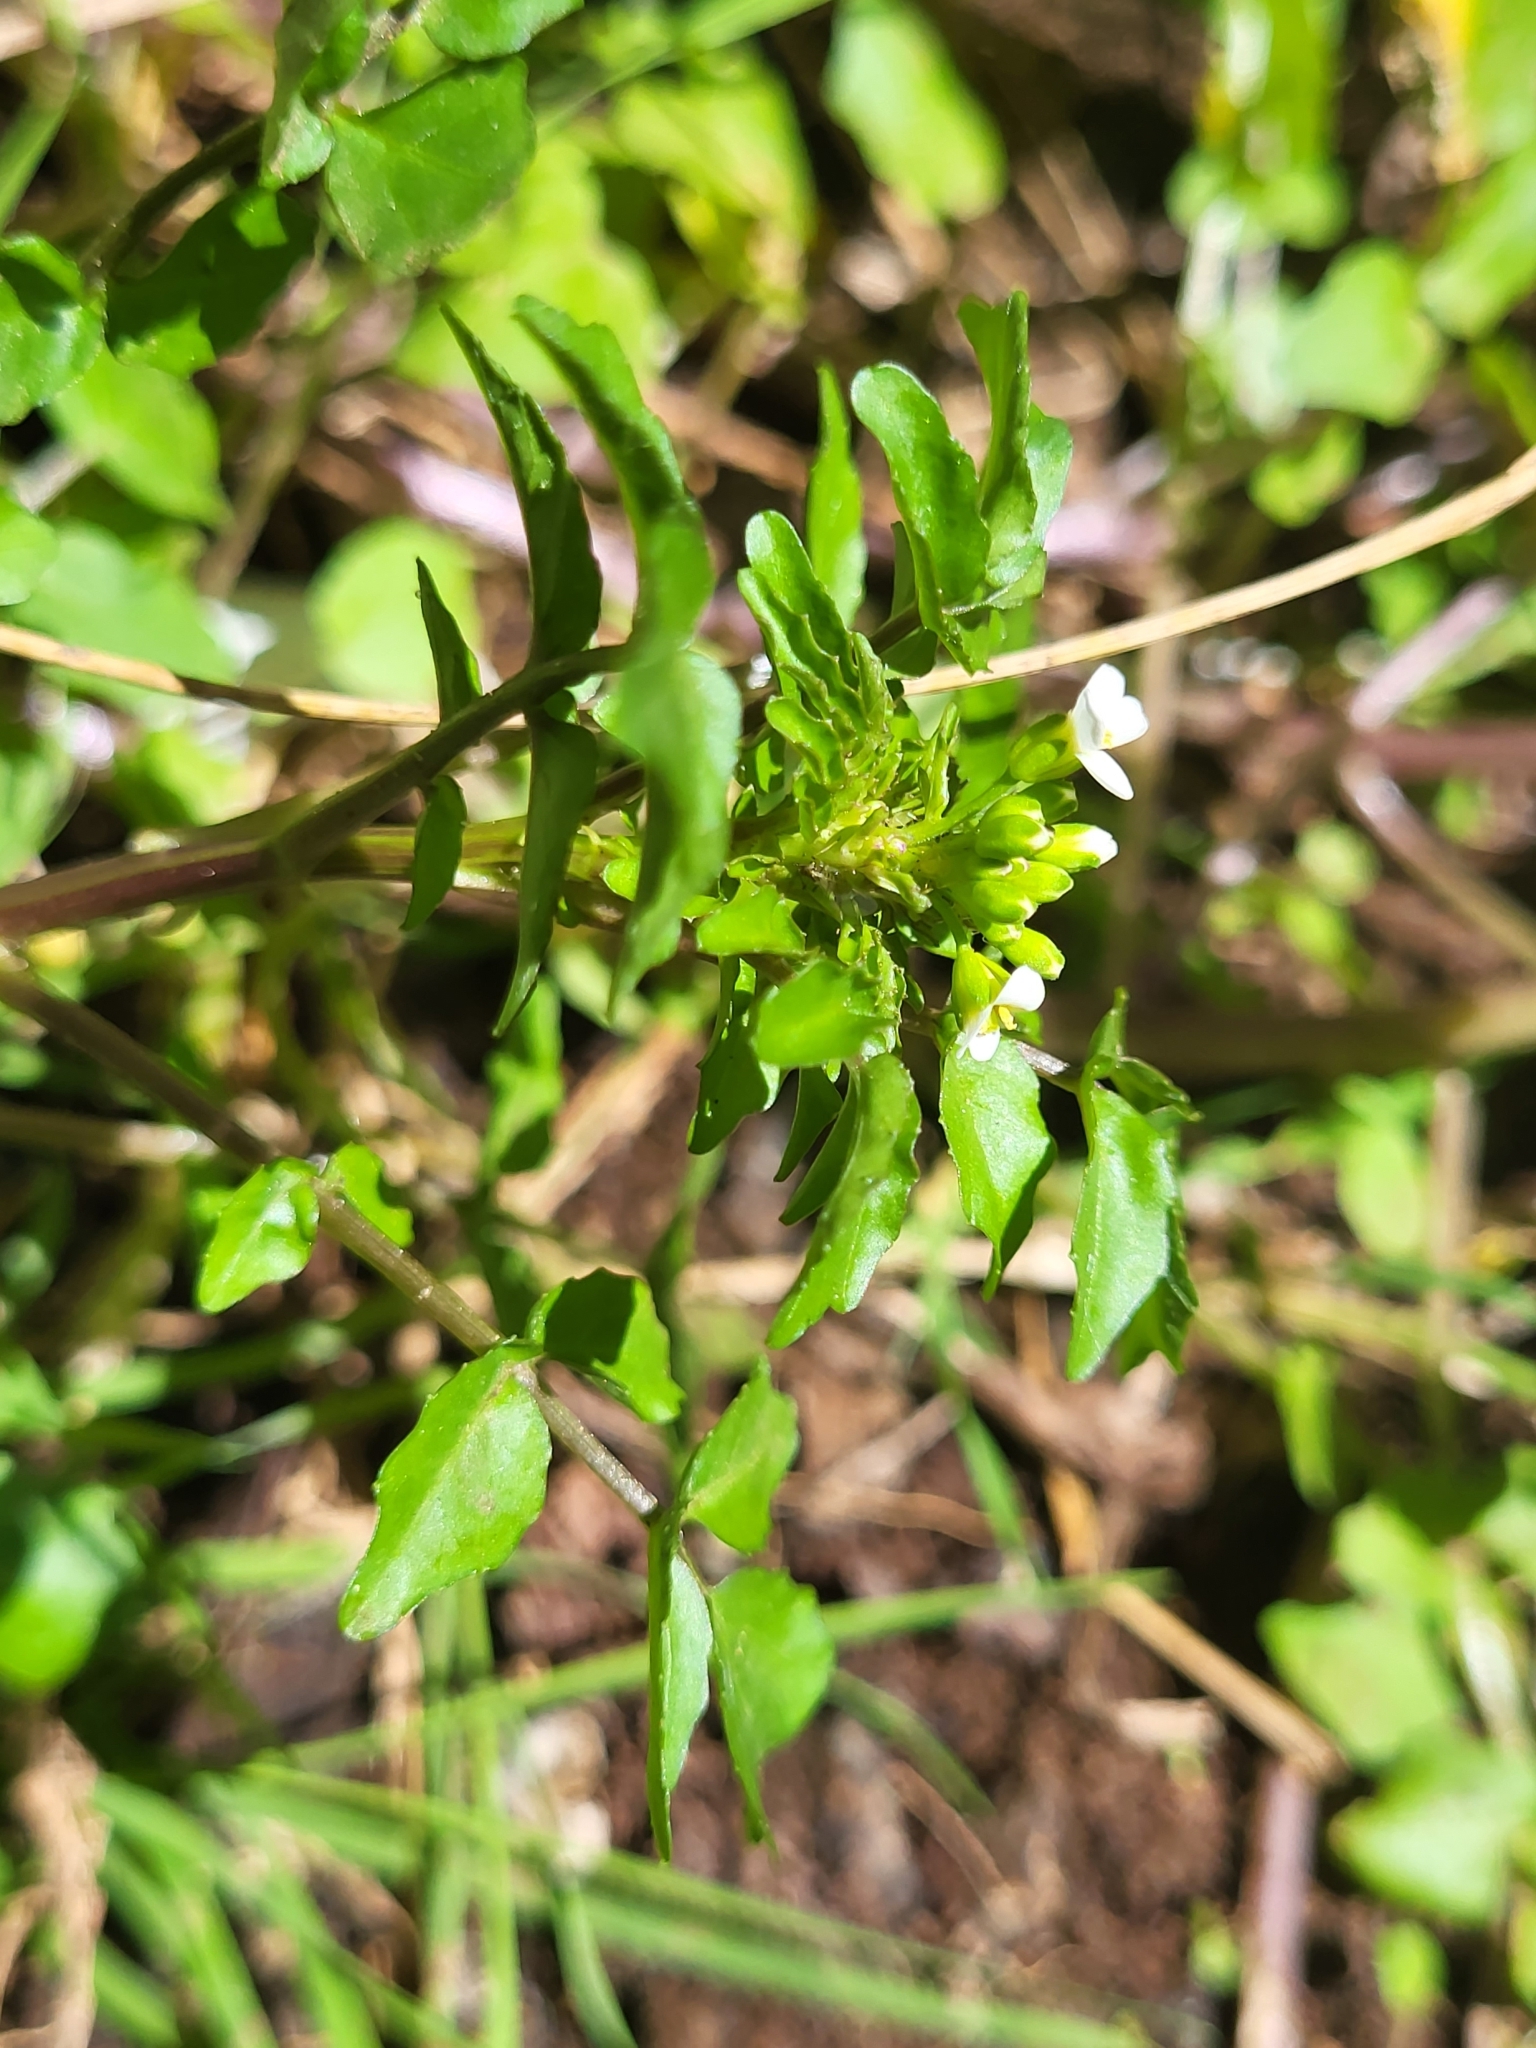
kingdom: Plantae
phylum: Tracheophyta
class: Magnoliopsida
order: Brassicales
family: Brassicaceae
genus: Nasturtium
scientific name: Nasturtium officinale
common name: Watercress
